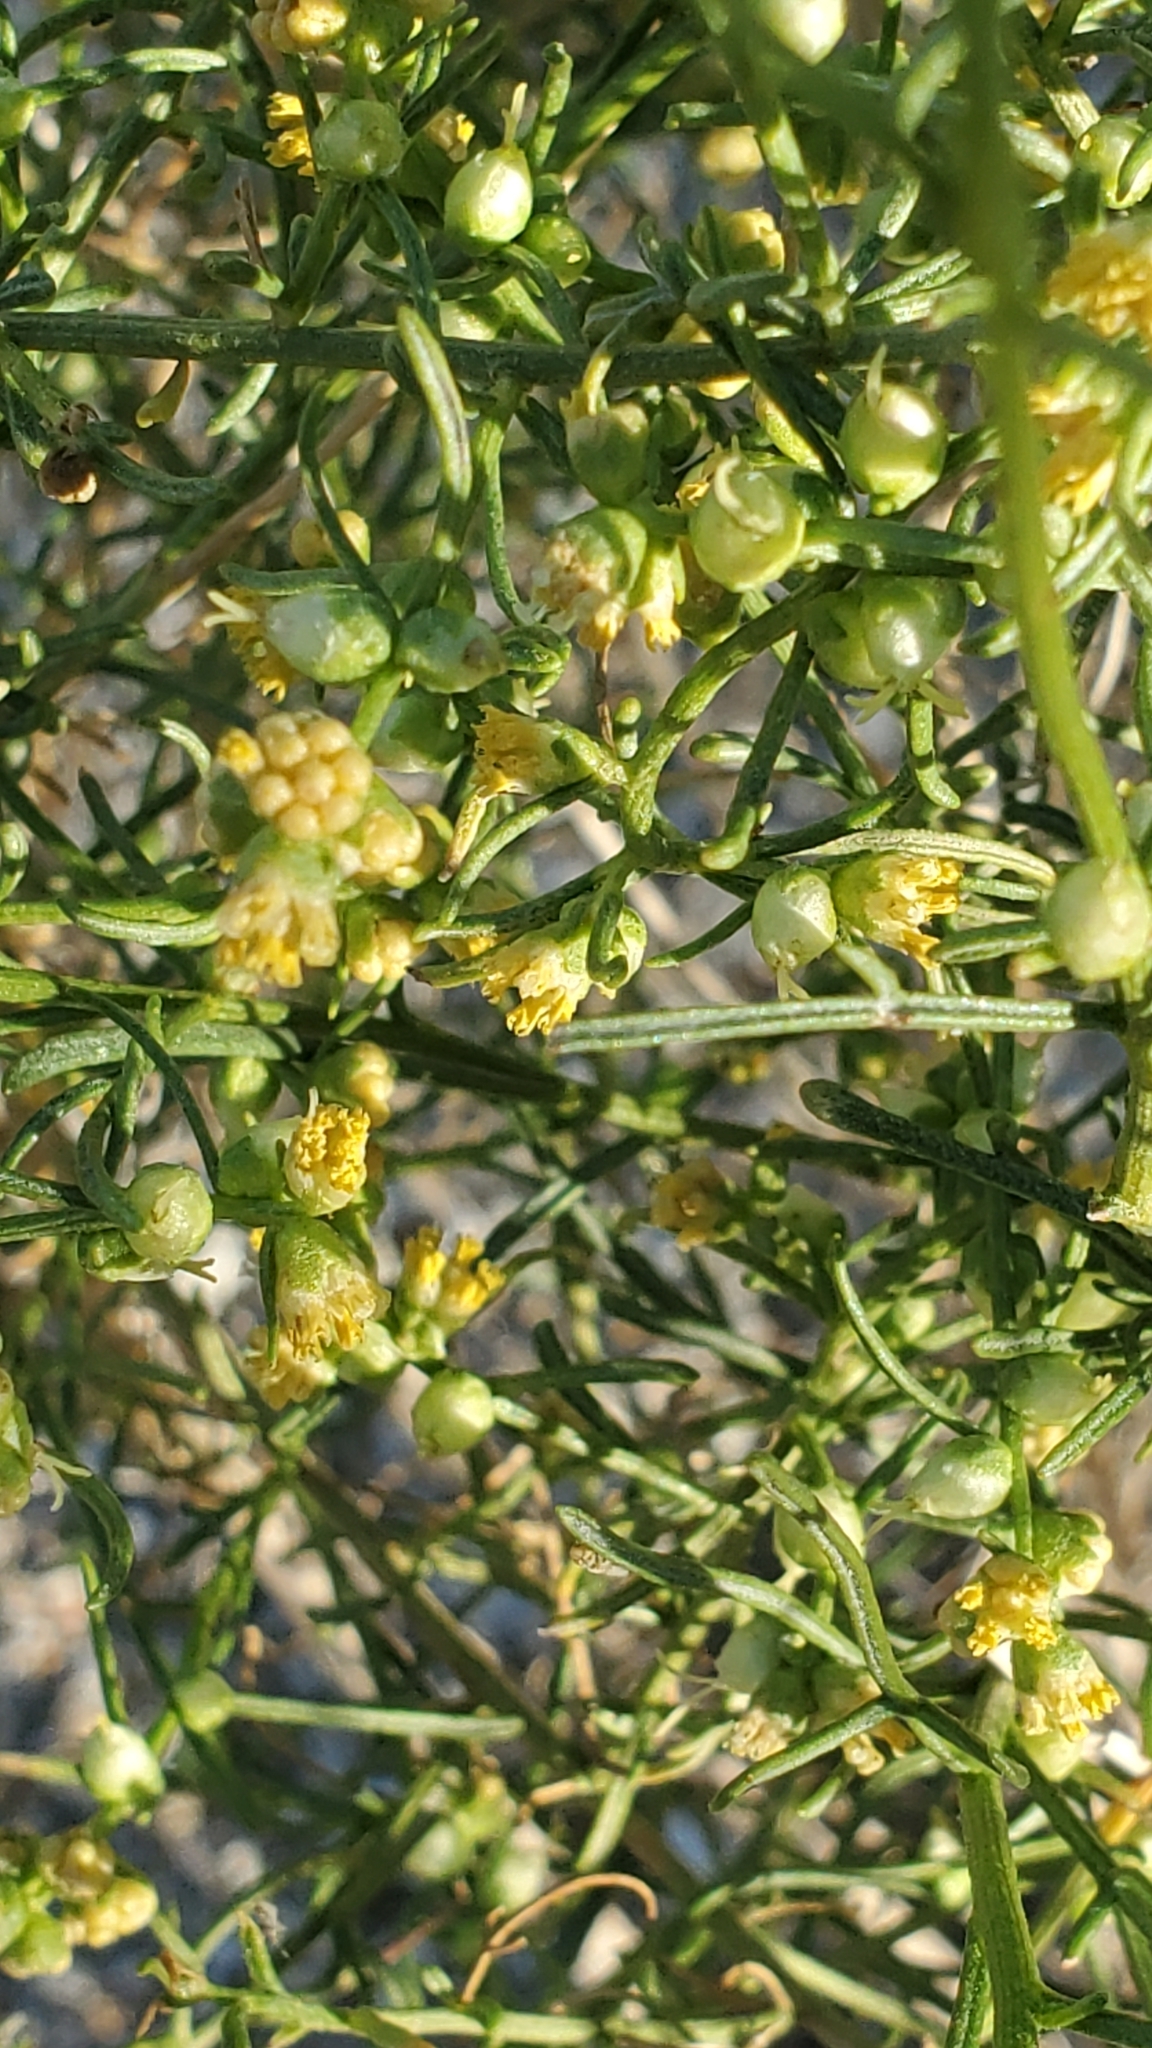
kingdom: Plantae
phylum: Tracheophyta
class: Magnoliopsida
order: Asterales
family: Asteraceae
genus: Ambrosia
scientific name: Ambrosia salsola
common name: Burrobrush
